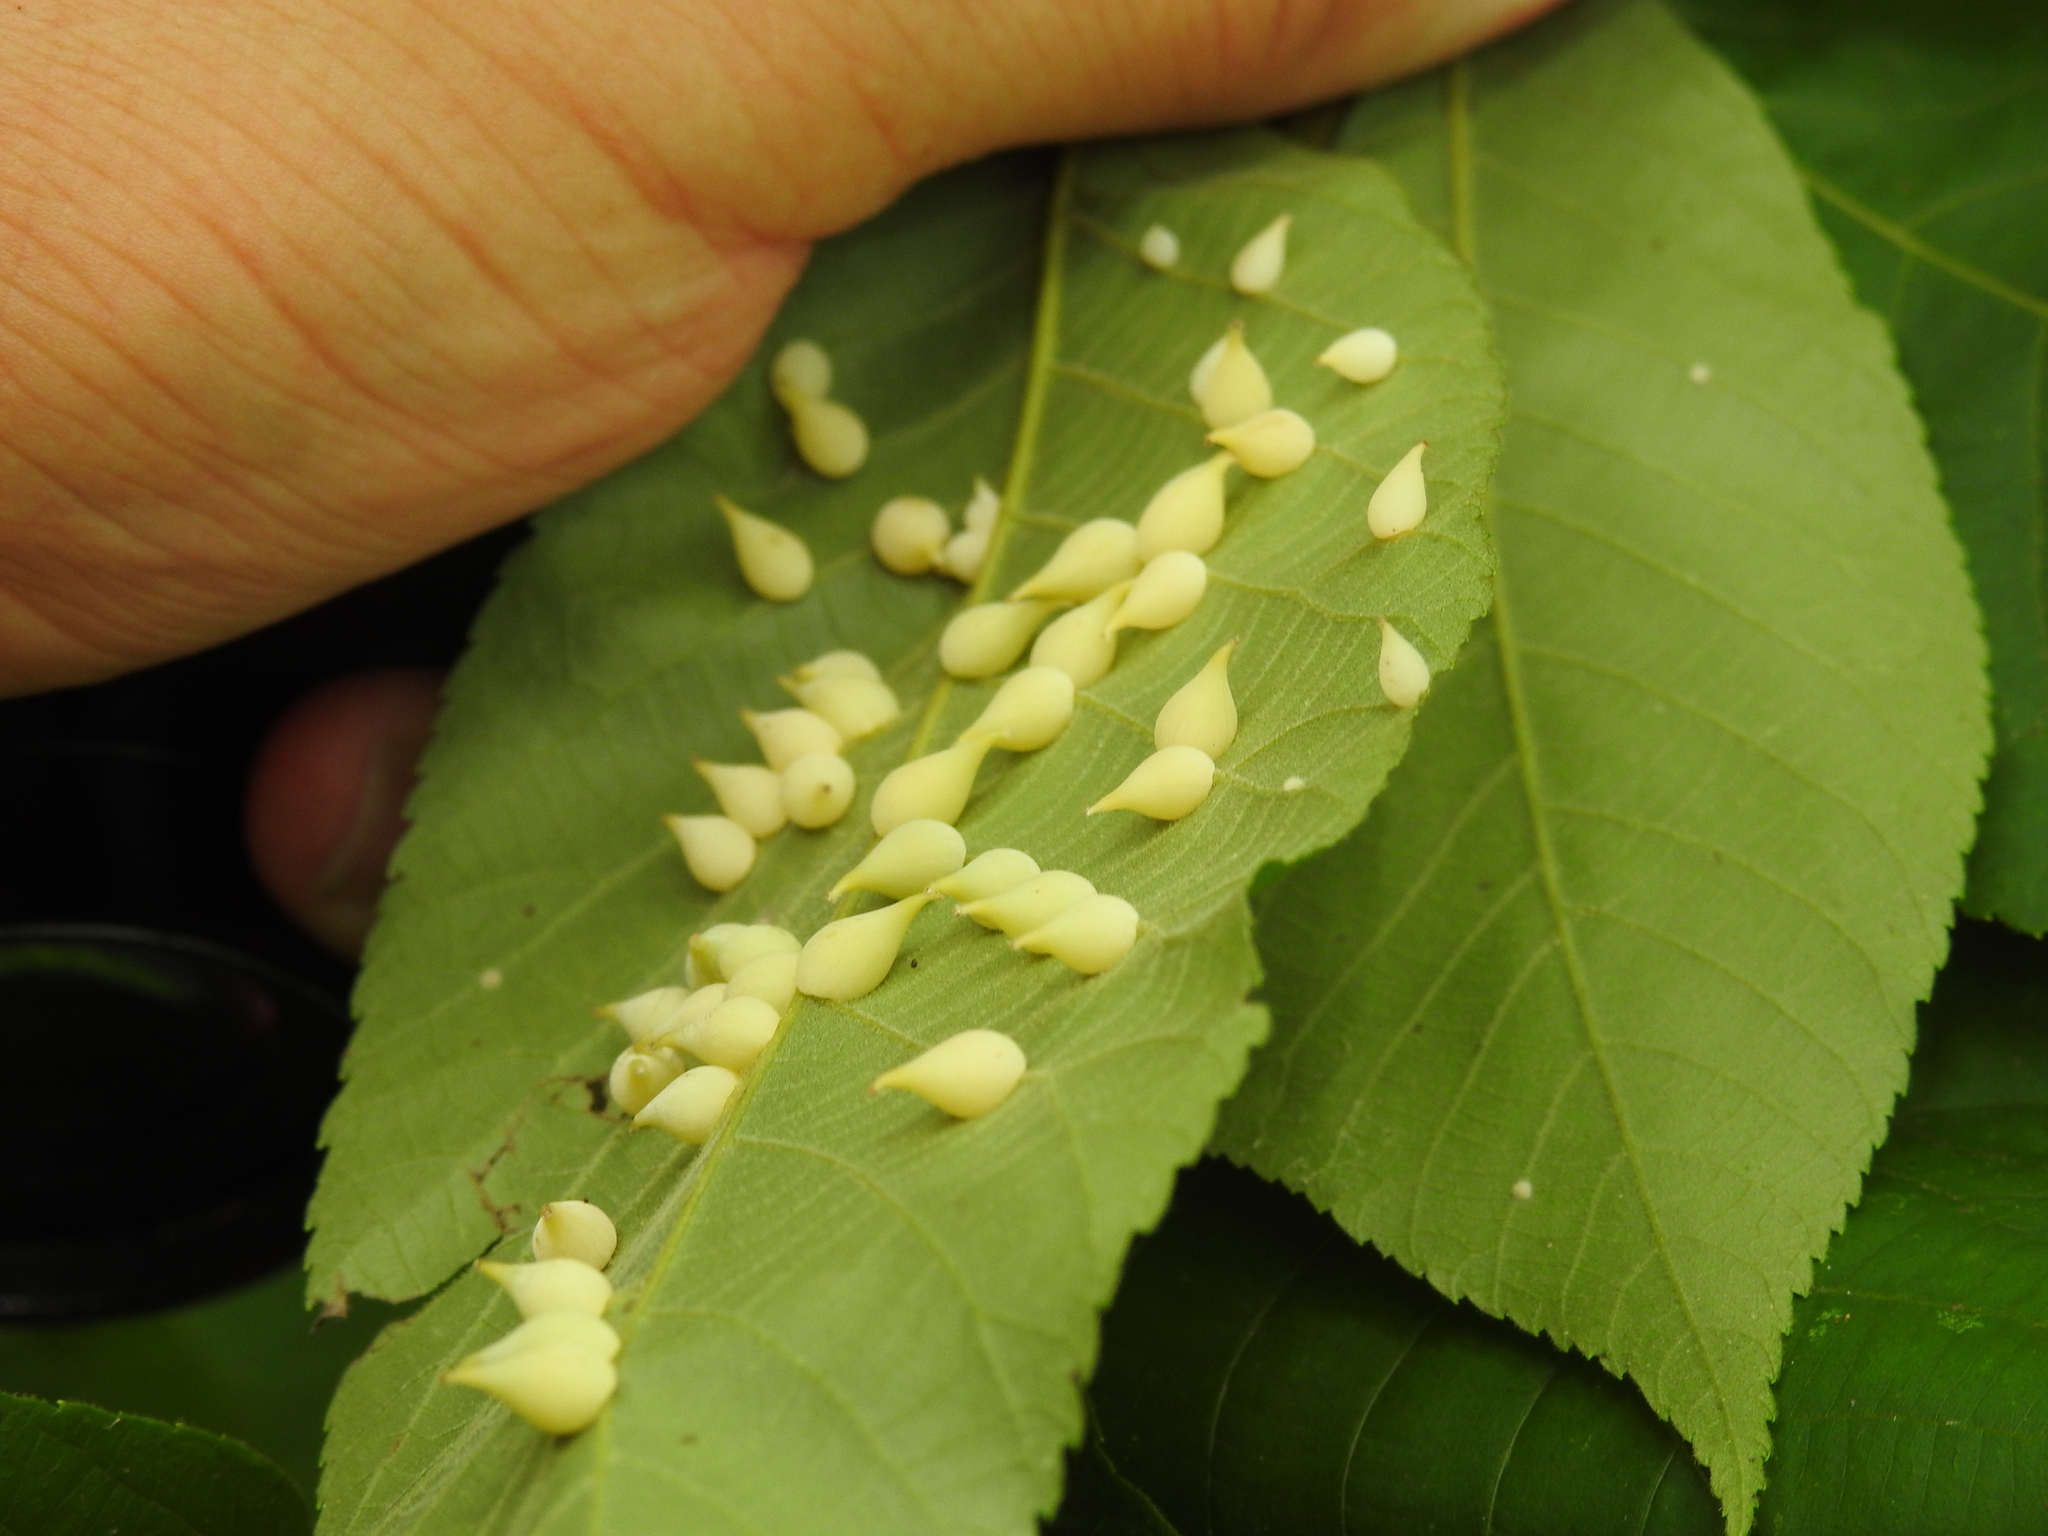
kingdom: Animalia
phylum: Arthropoda
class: Insecta
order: Diptera
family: Cecidomyiidae
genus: Caryomyia
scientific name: Caryomyia caryaecola
